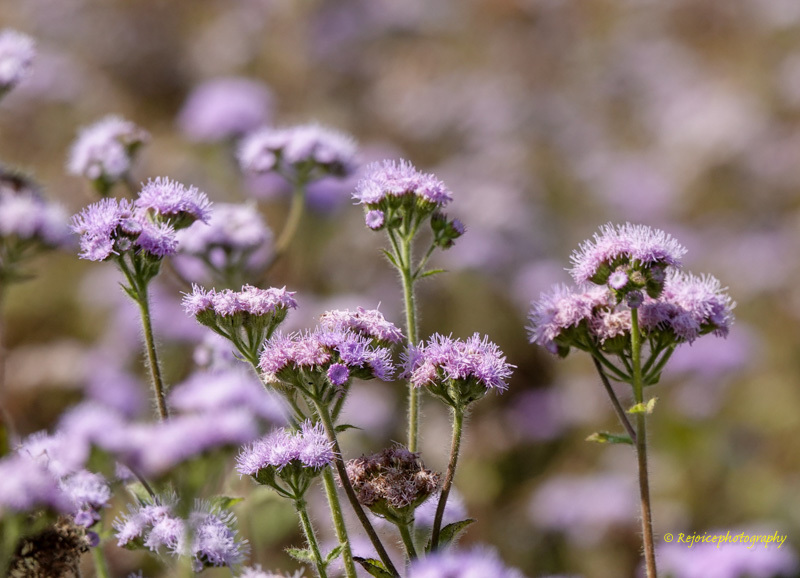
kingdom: Plantae
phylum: Tracheophyta
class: Magnoliopsida
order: Asterales
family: Asteraceae
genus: Ageratum
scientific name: Ageratum houstonianum
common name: Bluemink
